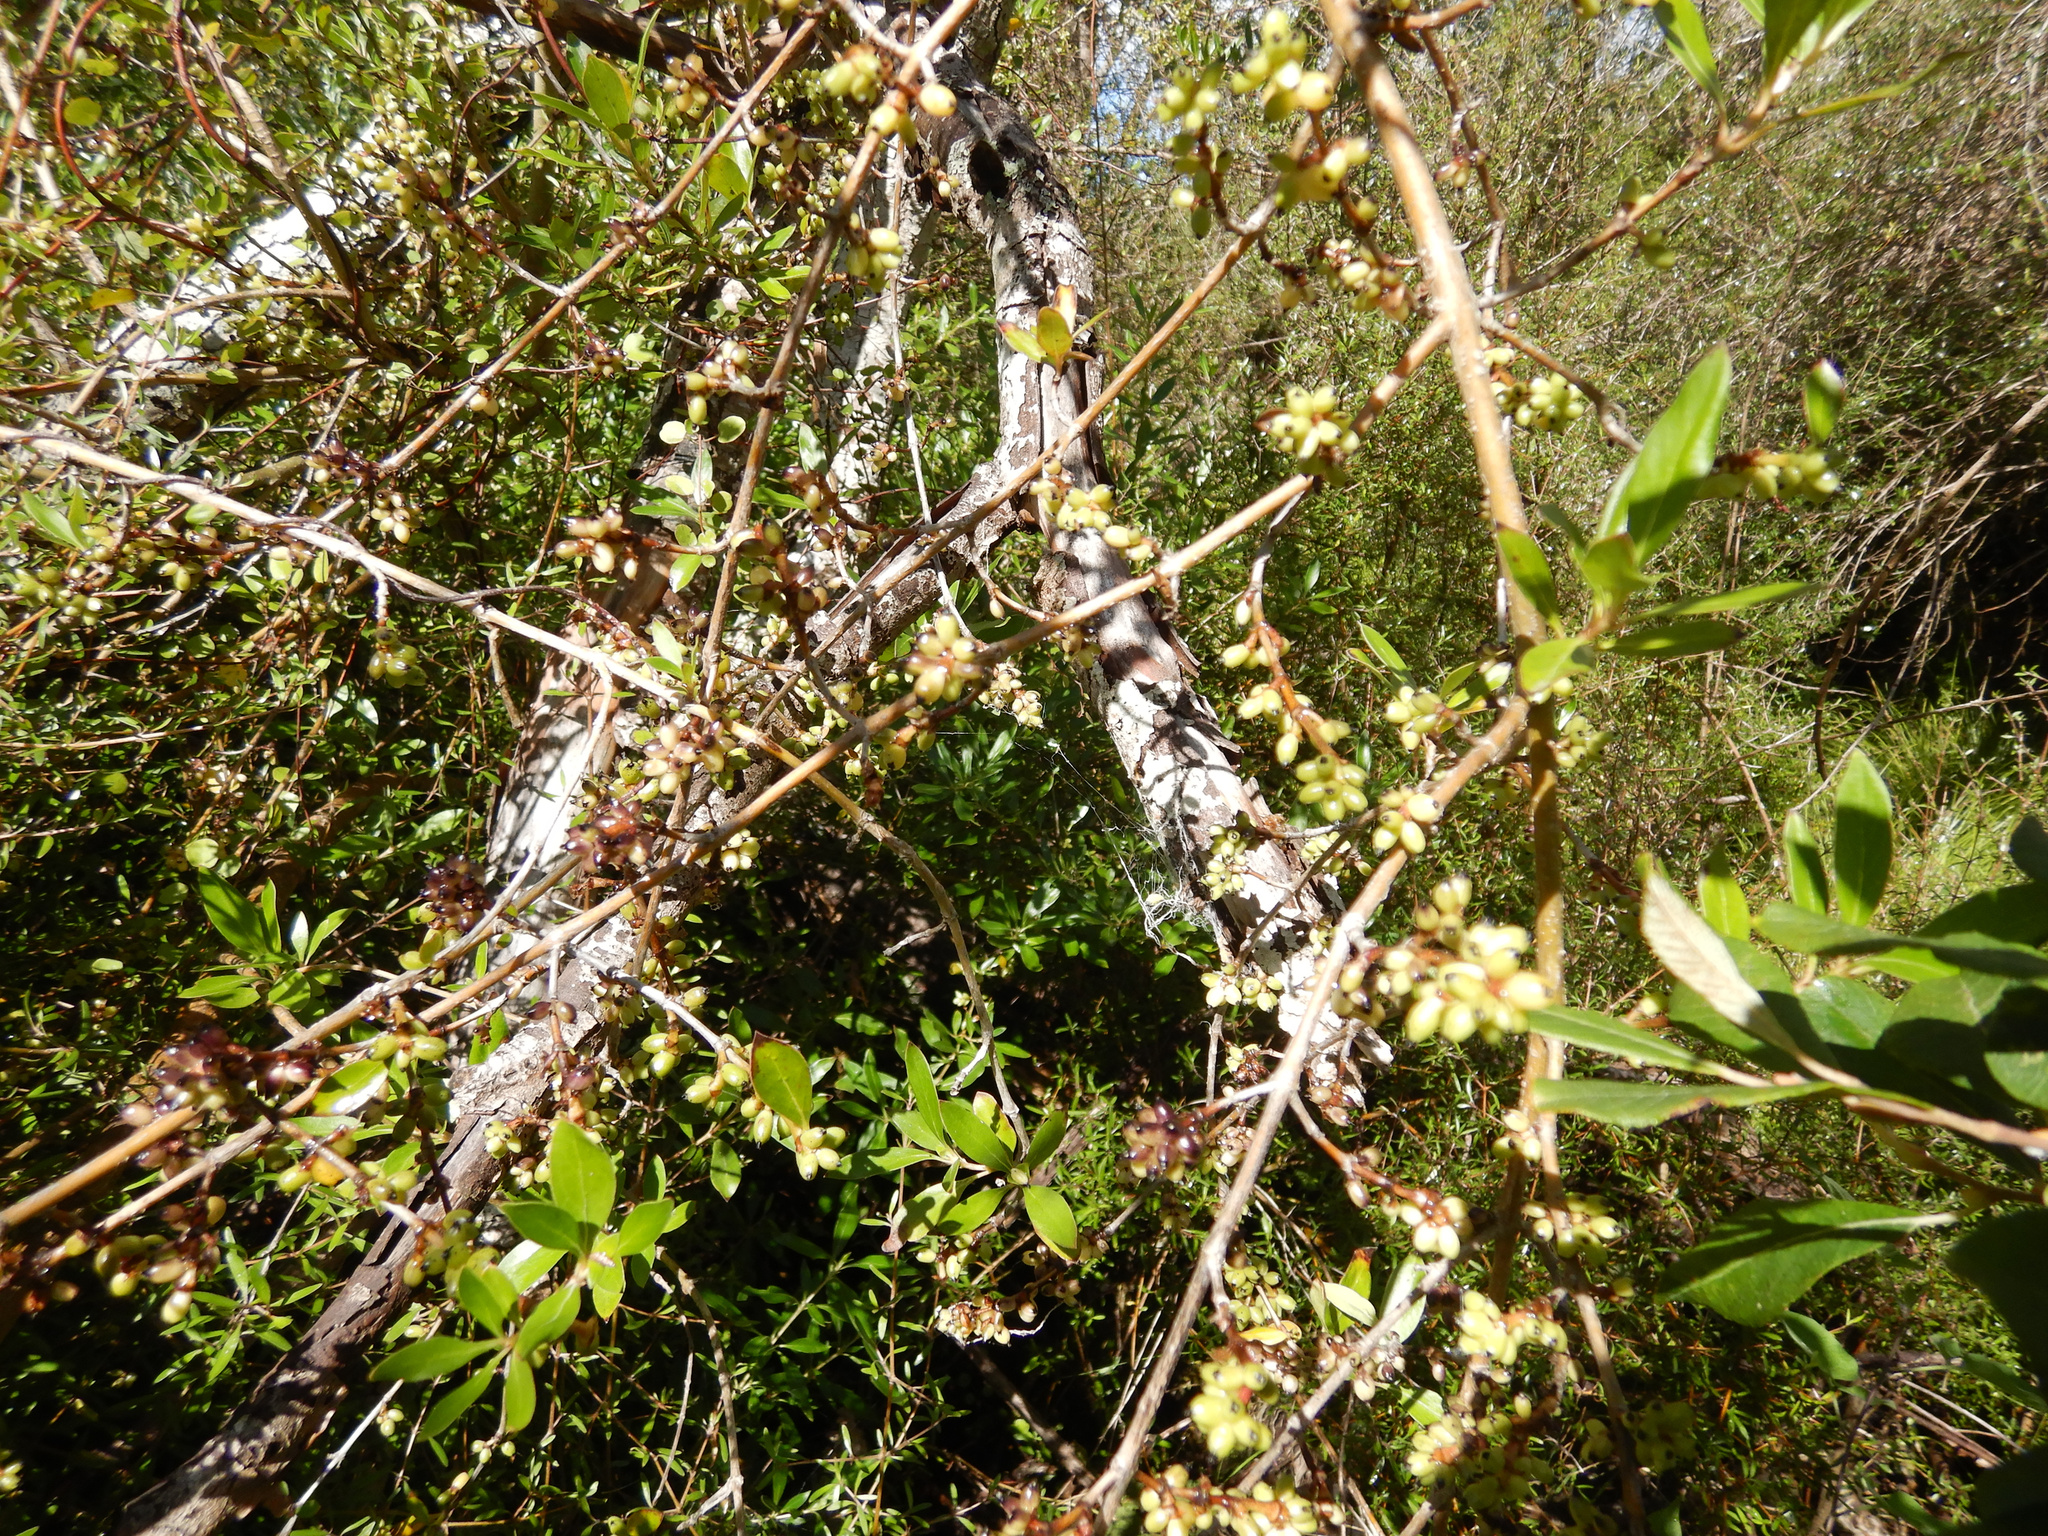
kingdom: Plantae
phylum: Tracheophyta
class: Magnoliopsida
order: Gentianales
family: Rubiaceae
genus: Coprosma
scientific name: Coprosma cunninghamii
